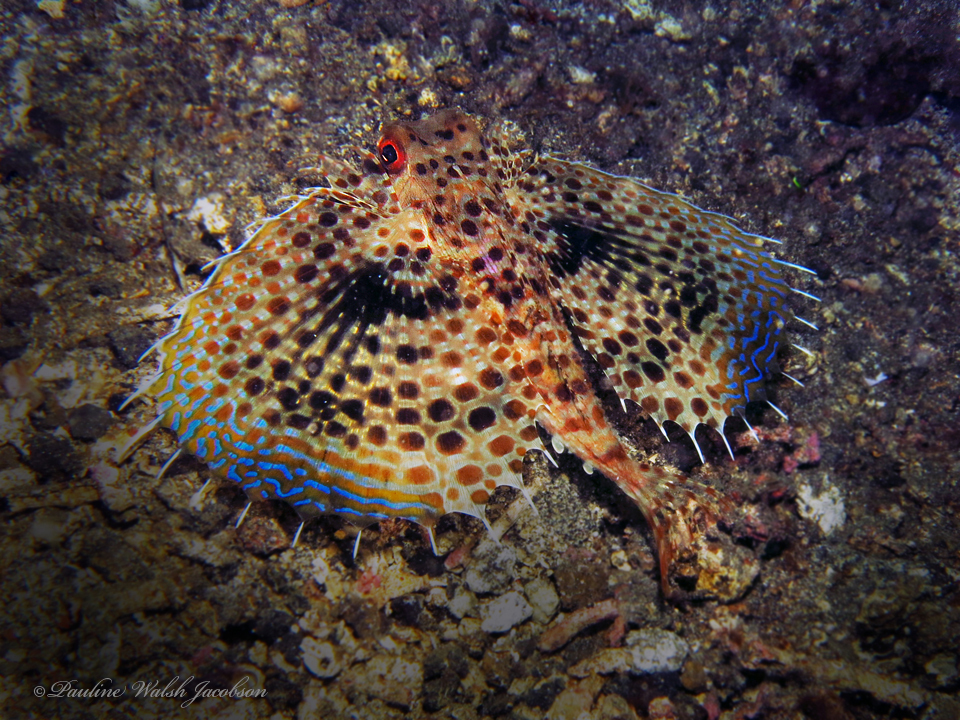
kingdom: Animalia
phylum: Chordata
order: Scorpaeniformes
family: Dactylopteridae
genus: Dactyloptena
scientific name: Dactyloptena orientalis
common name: Flying gurnard
